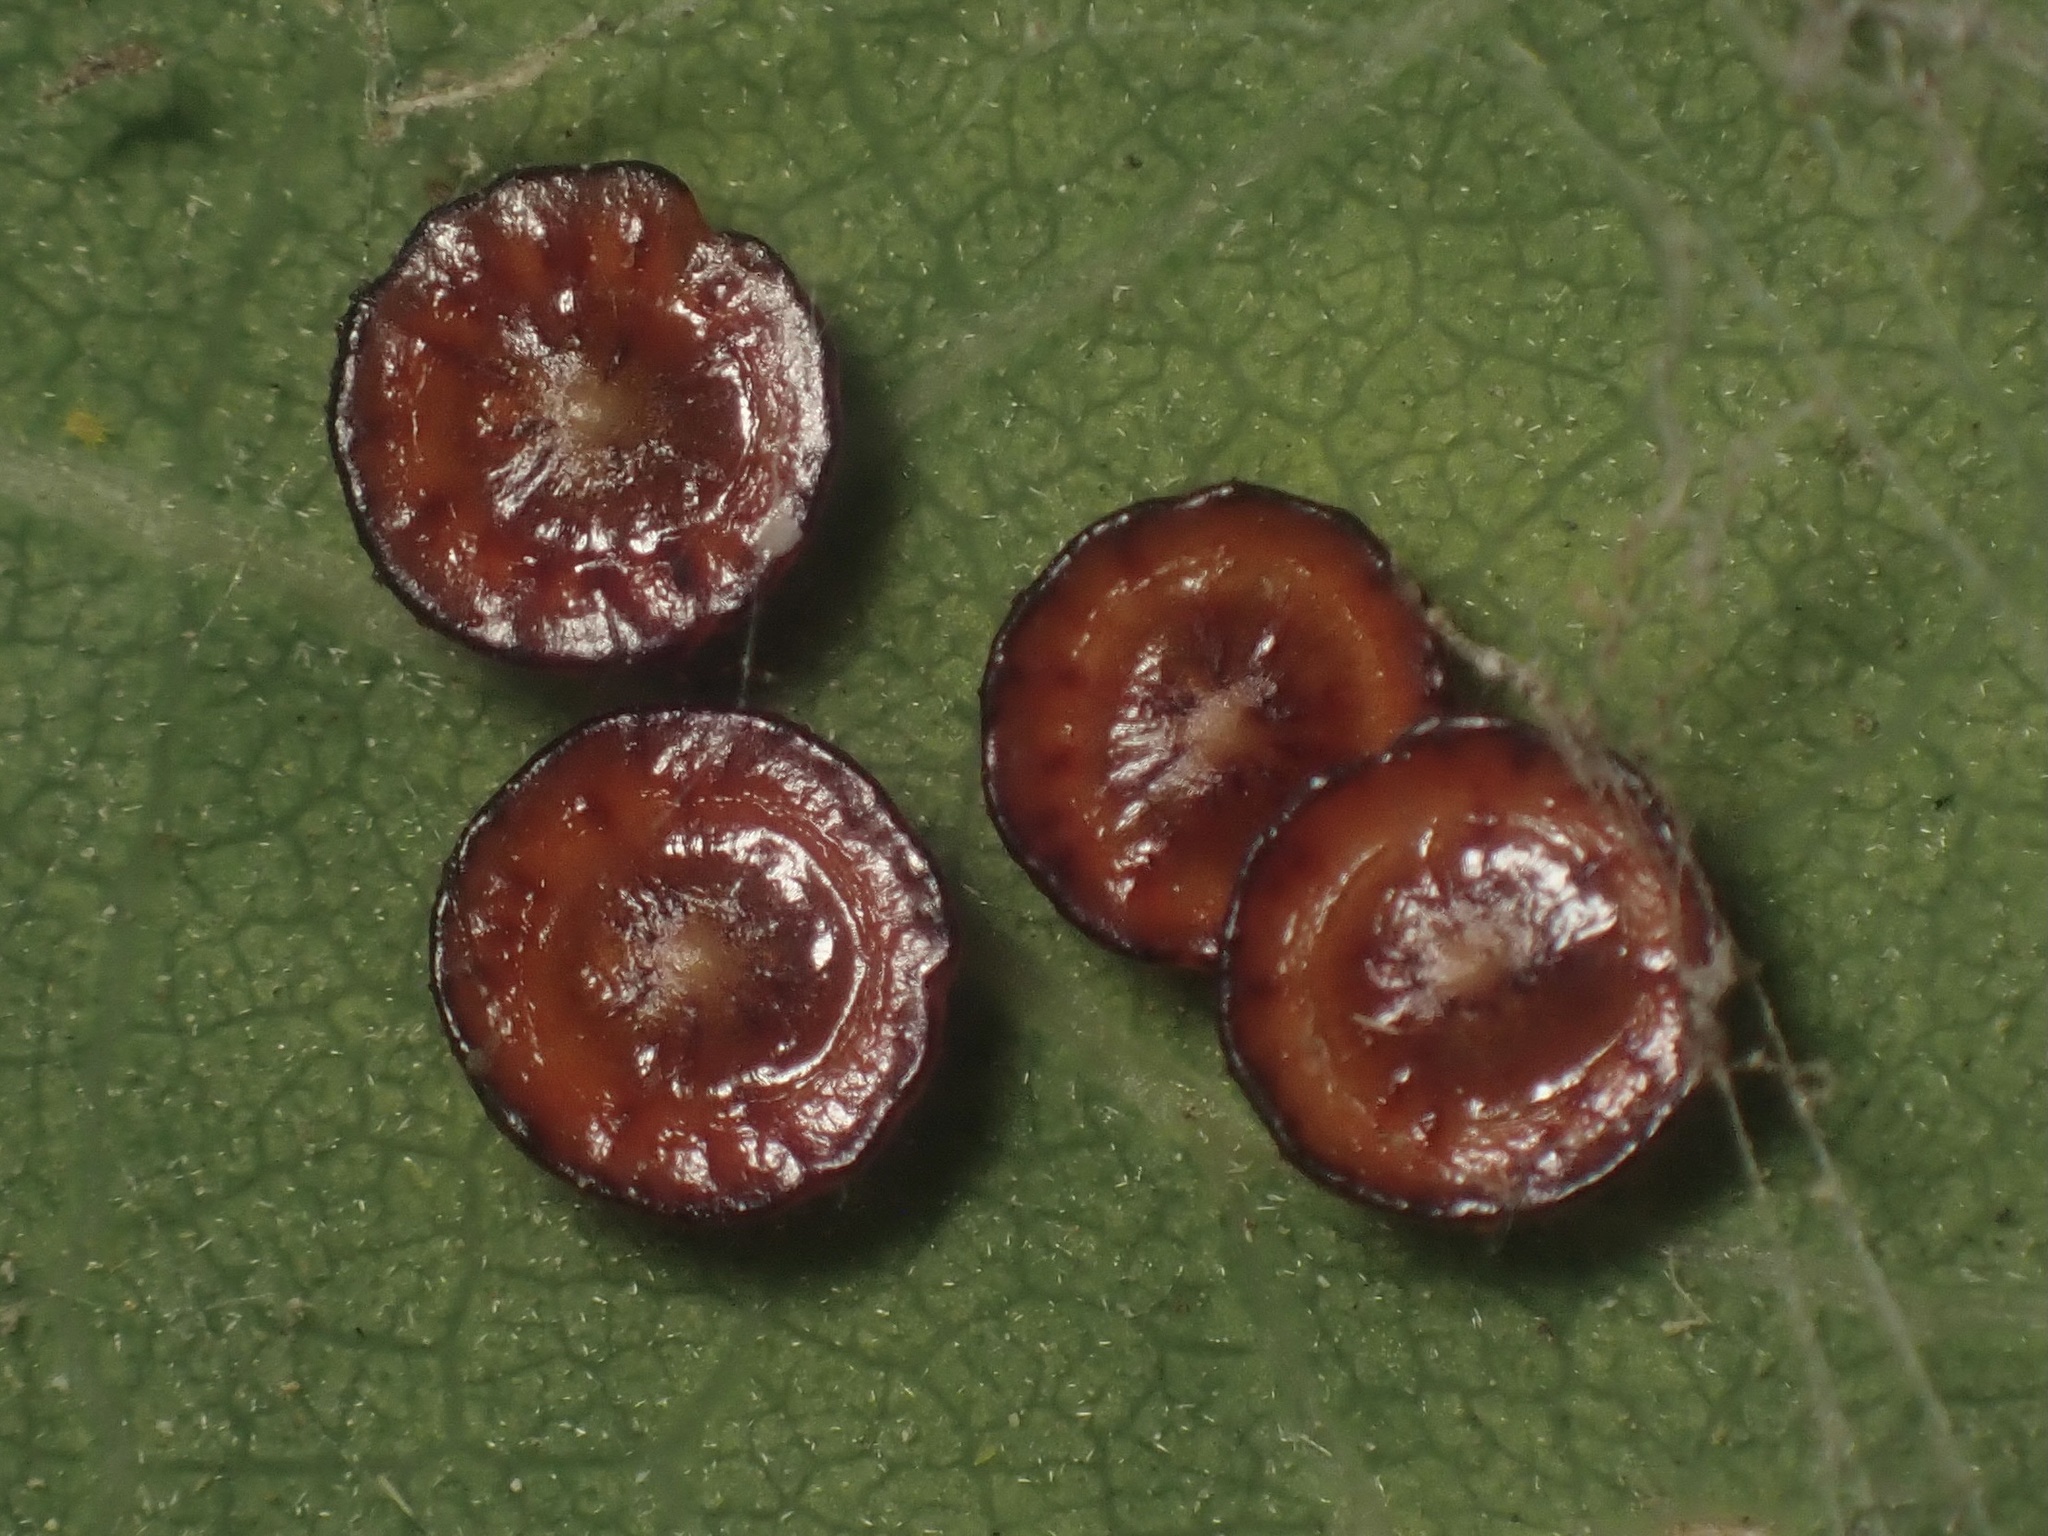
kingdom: Animalia
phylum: Arthropoda
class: Insecta
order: Hymenoptera
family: Cynipidae
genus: Andricus
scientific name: Andricus
